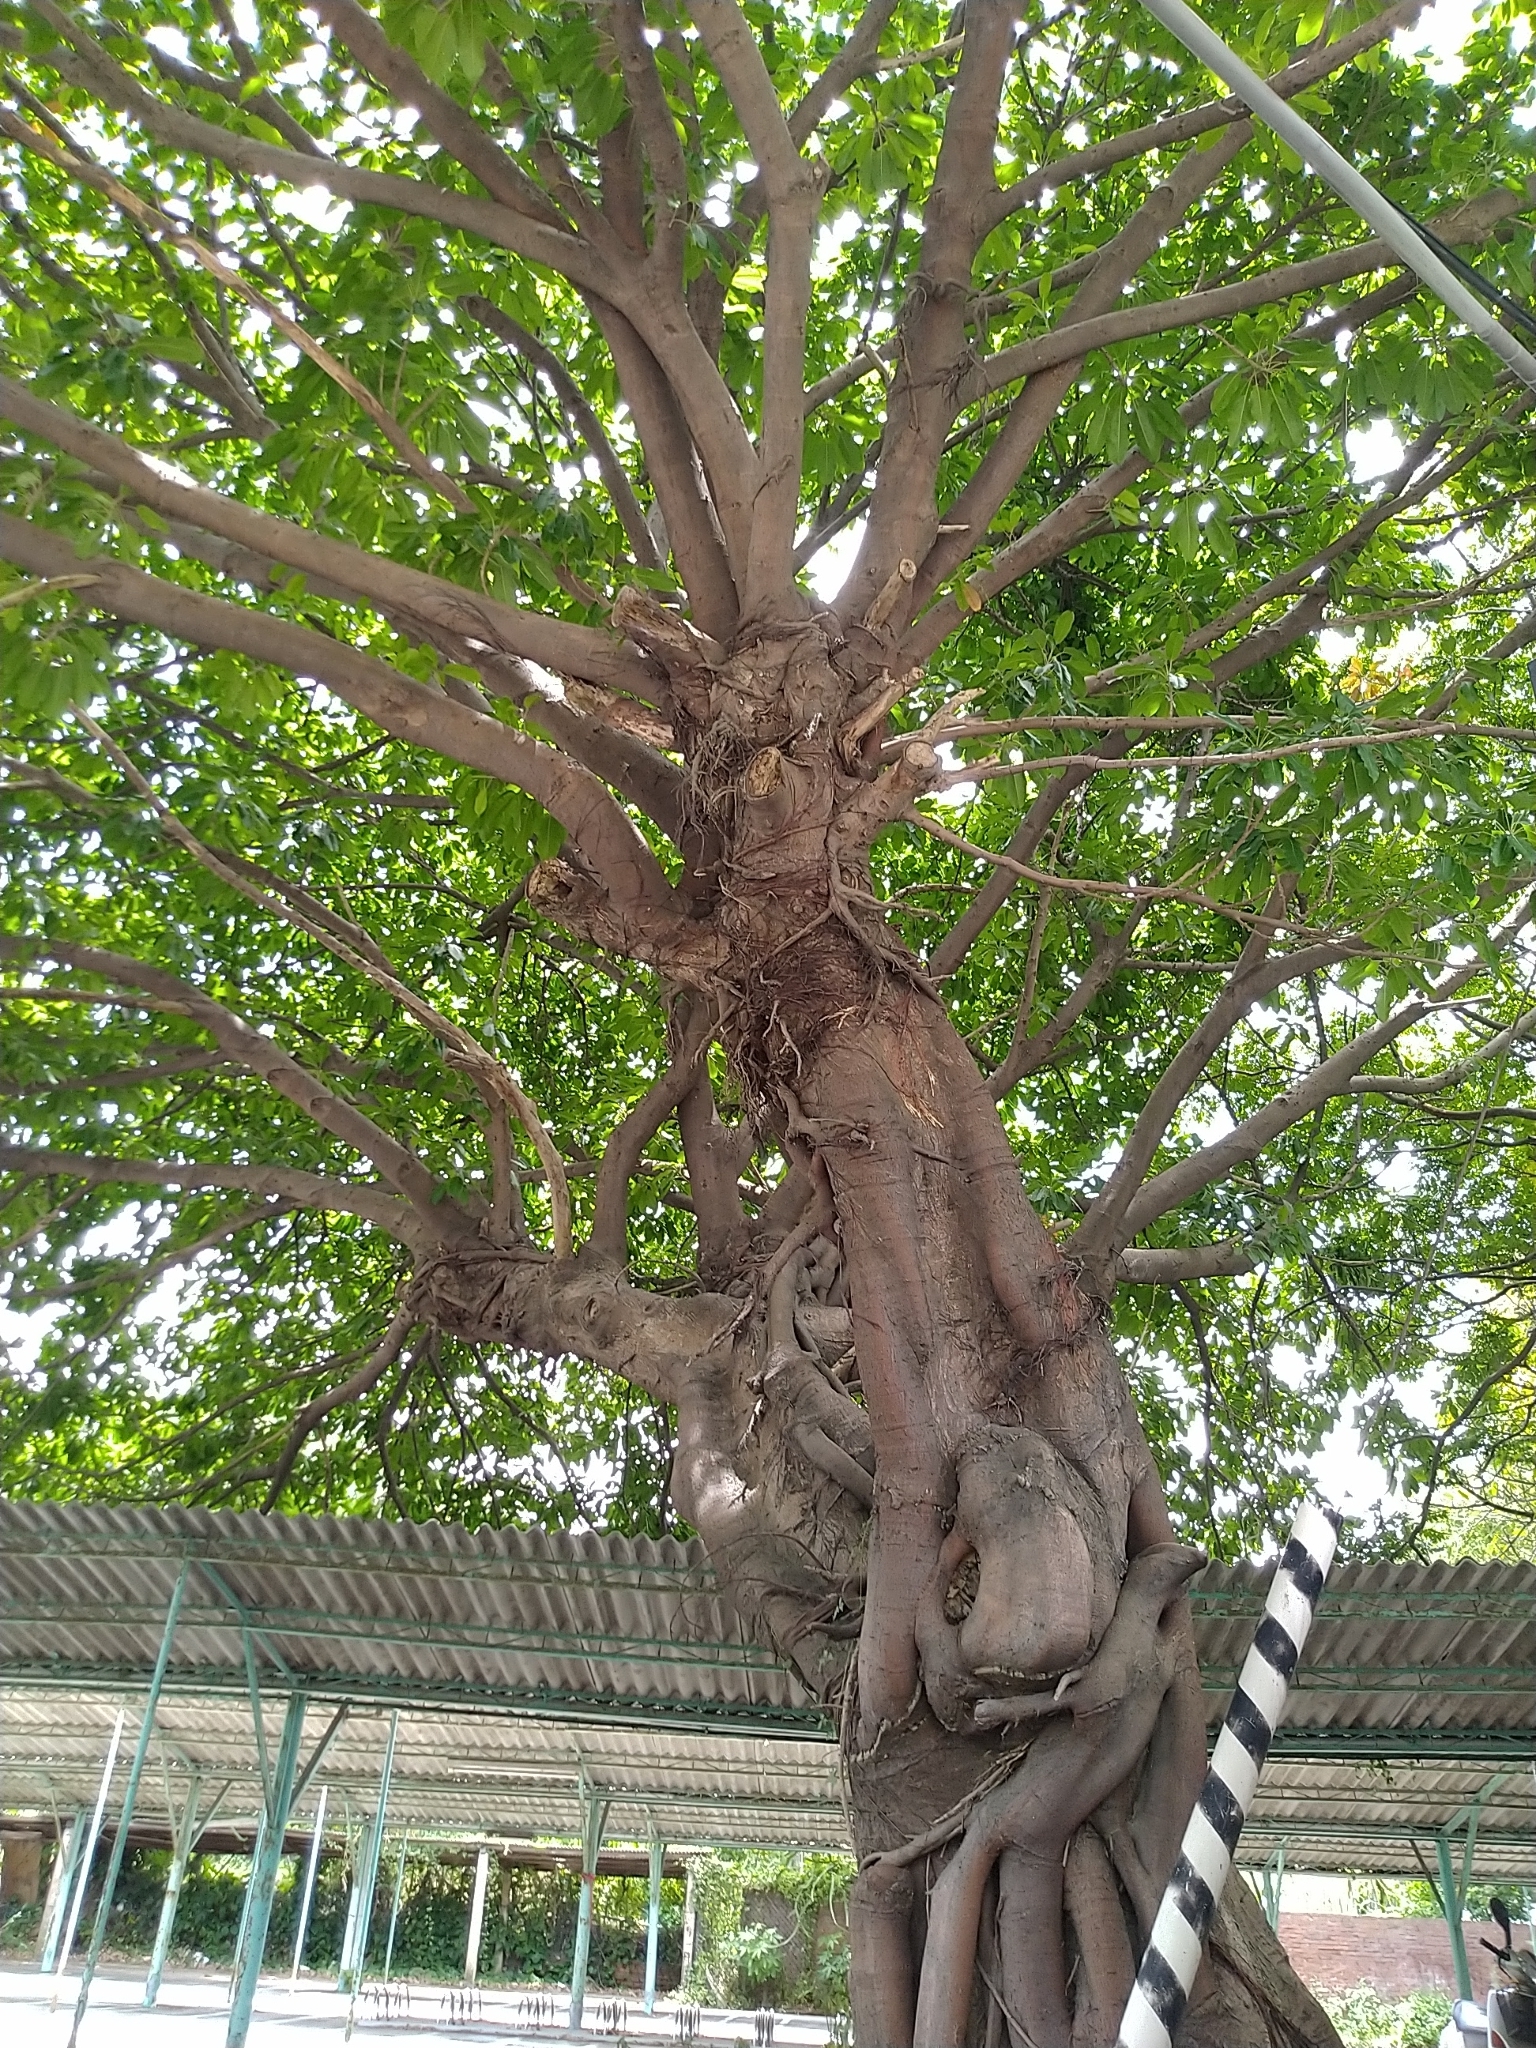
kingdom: Plantae
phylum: Tracheophyta
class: Magnoliopsida
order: Rosales
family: Moraceae
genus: Ficus
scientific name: Ficus subpisocarpa
